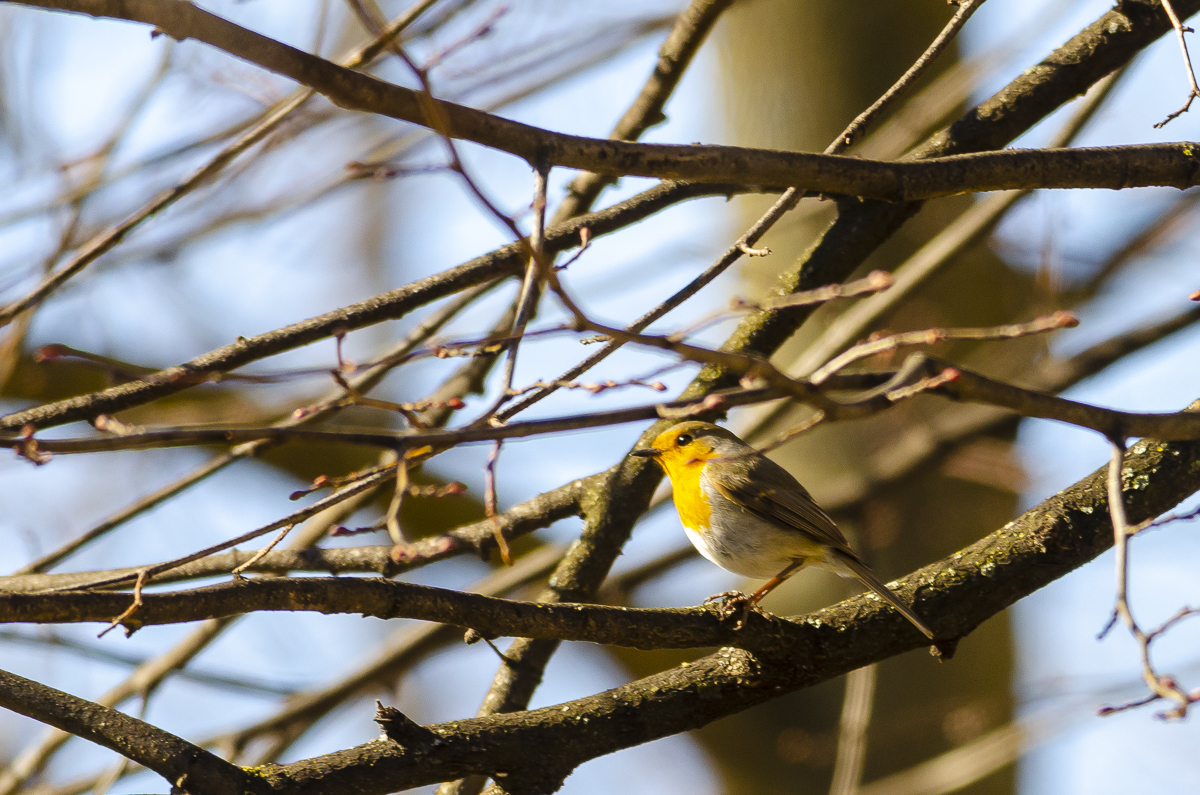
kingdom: Animalia
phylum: Chordata
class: Aves
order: Passeriformes
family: Muscicapidae
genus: Erithacus
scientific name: Erithacus rubecula
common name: European robin
